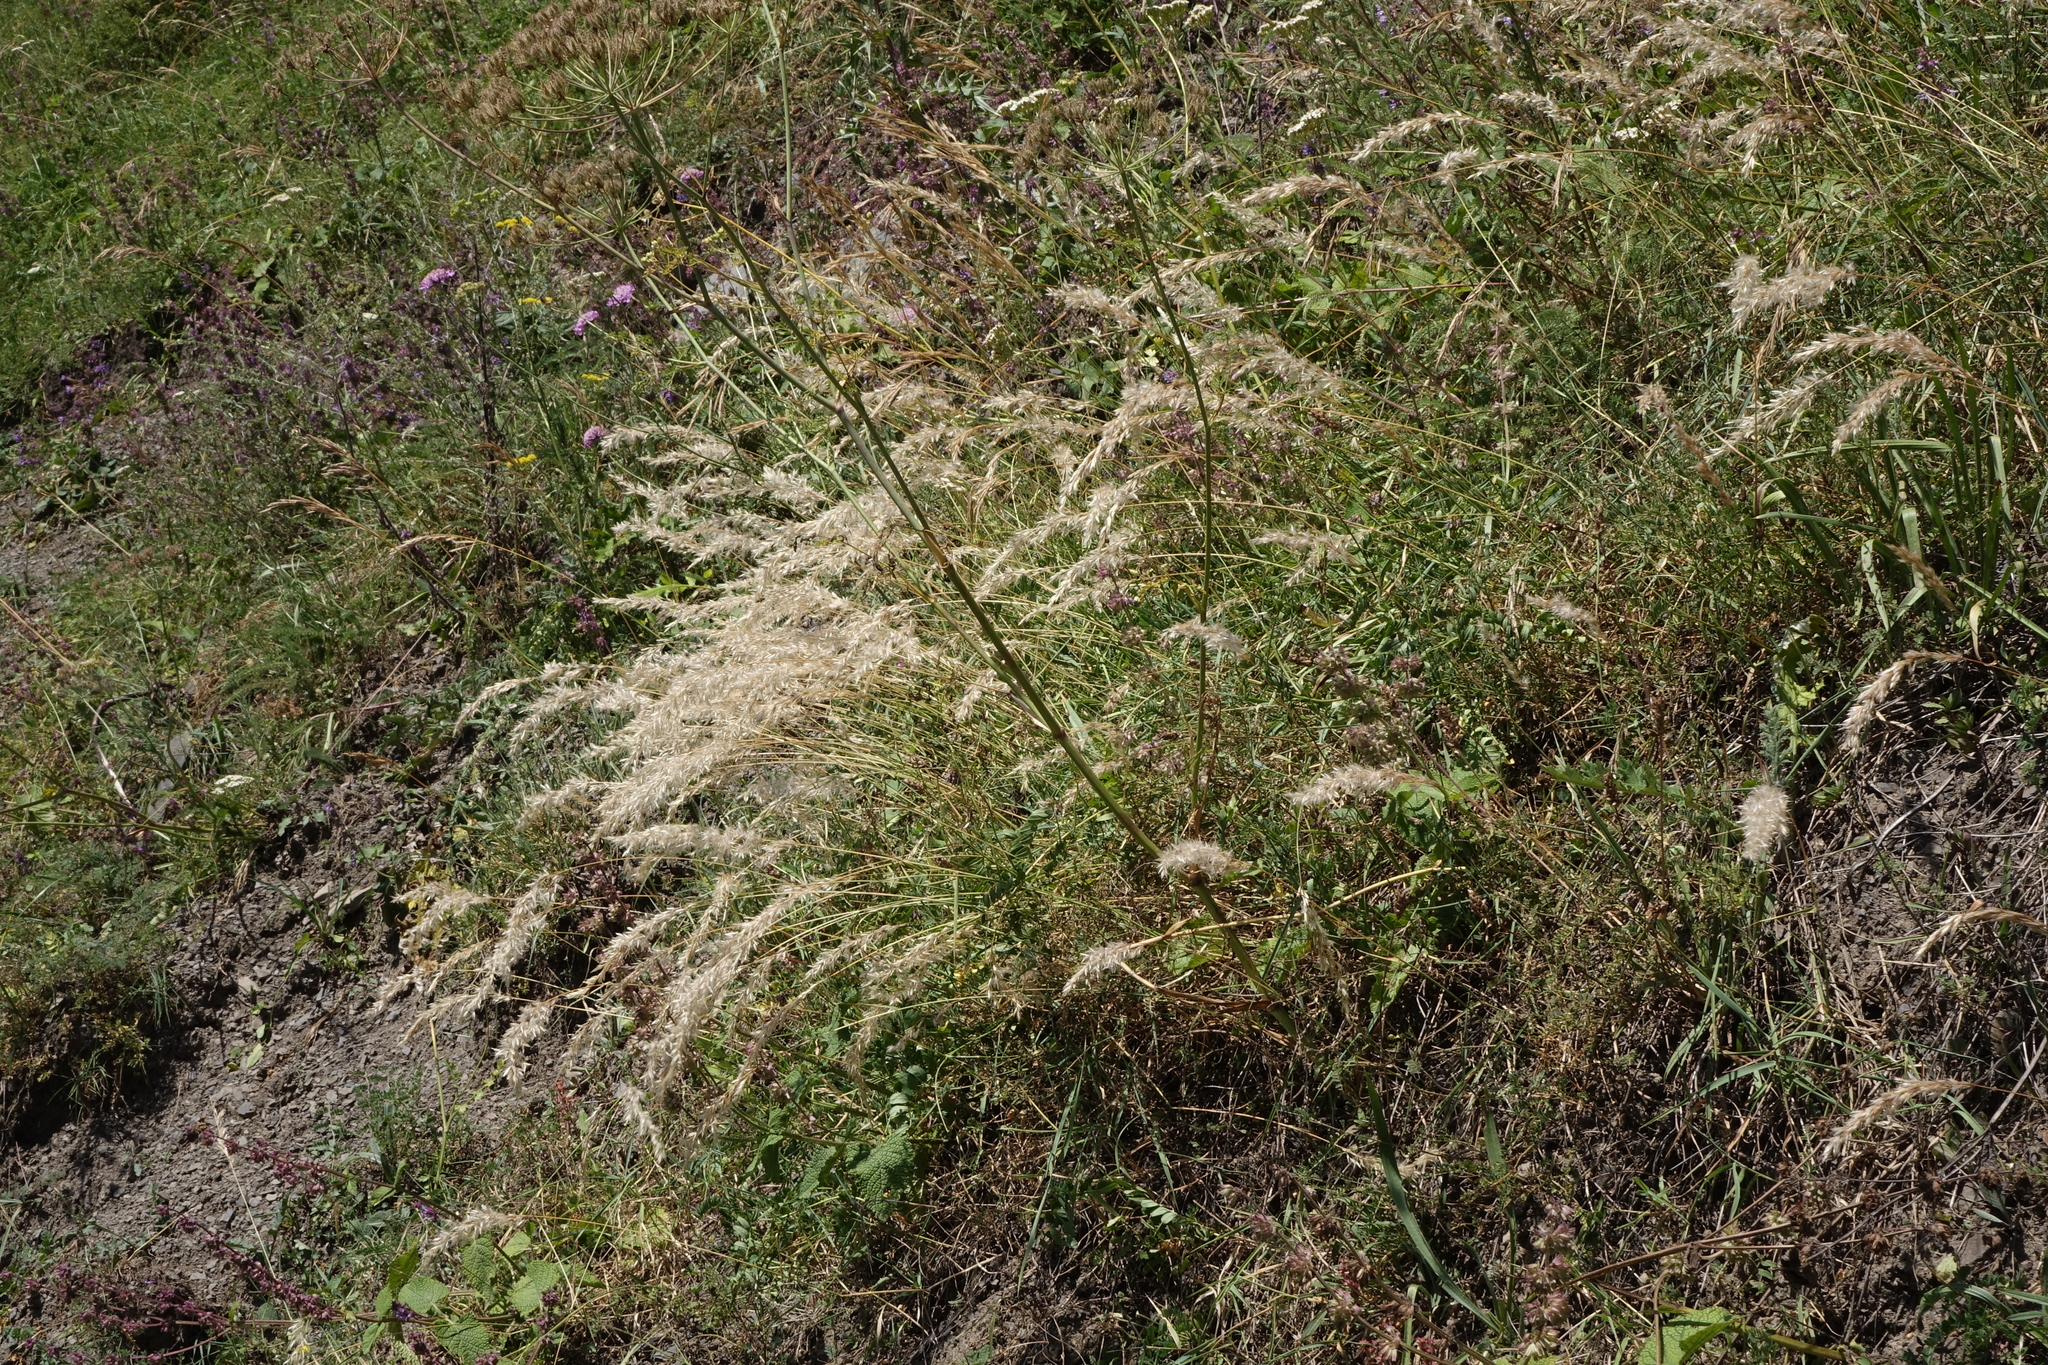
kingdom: Plantae
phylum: Tracheophyta
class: Liliopsida
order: Poales
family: Poaceae
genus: Melica
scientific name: Melica transsilvanica
